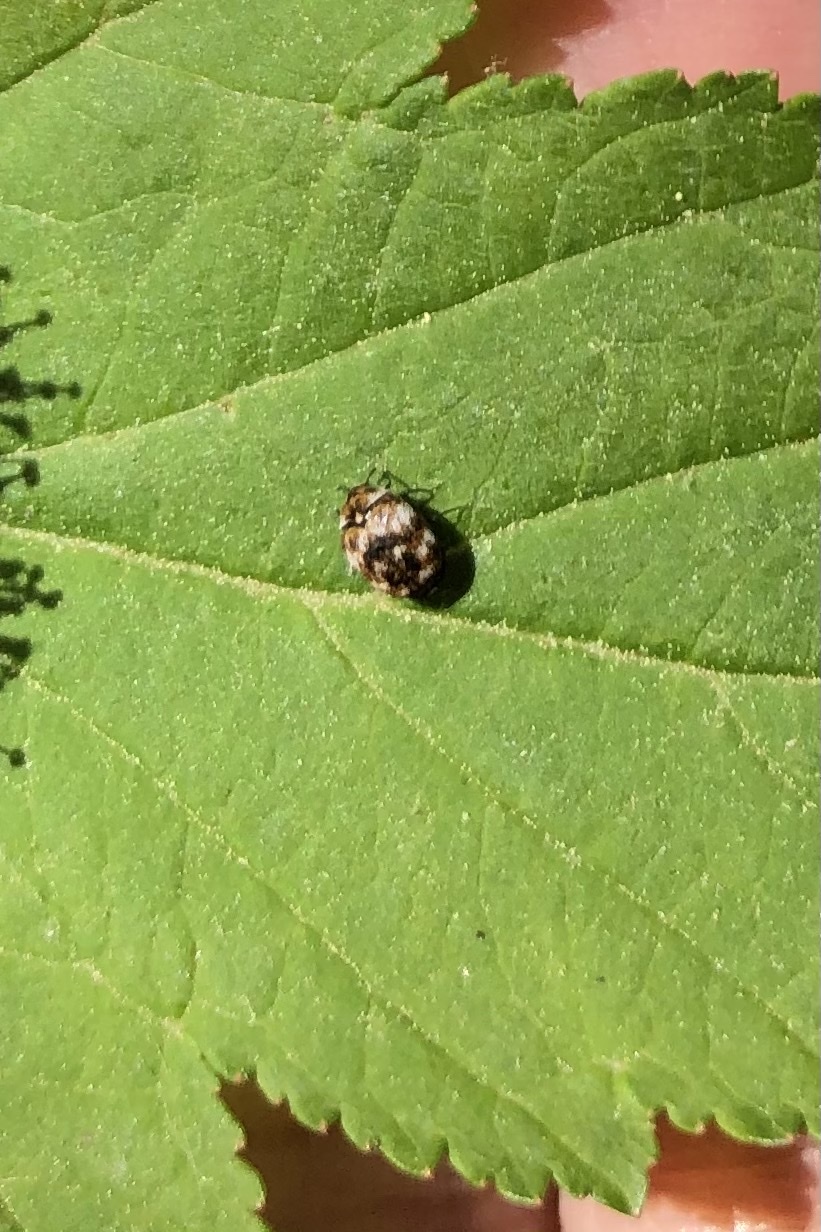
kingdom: Animalia
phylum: Arthropoda
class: Insecta
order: Coleoptera
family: Dermestidae
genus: Anthrenus
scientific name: Anthrenus verbasci
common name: Varied carpet beetle
